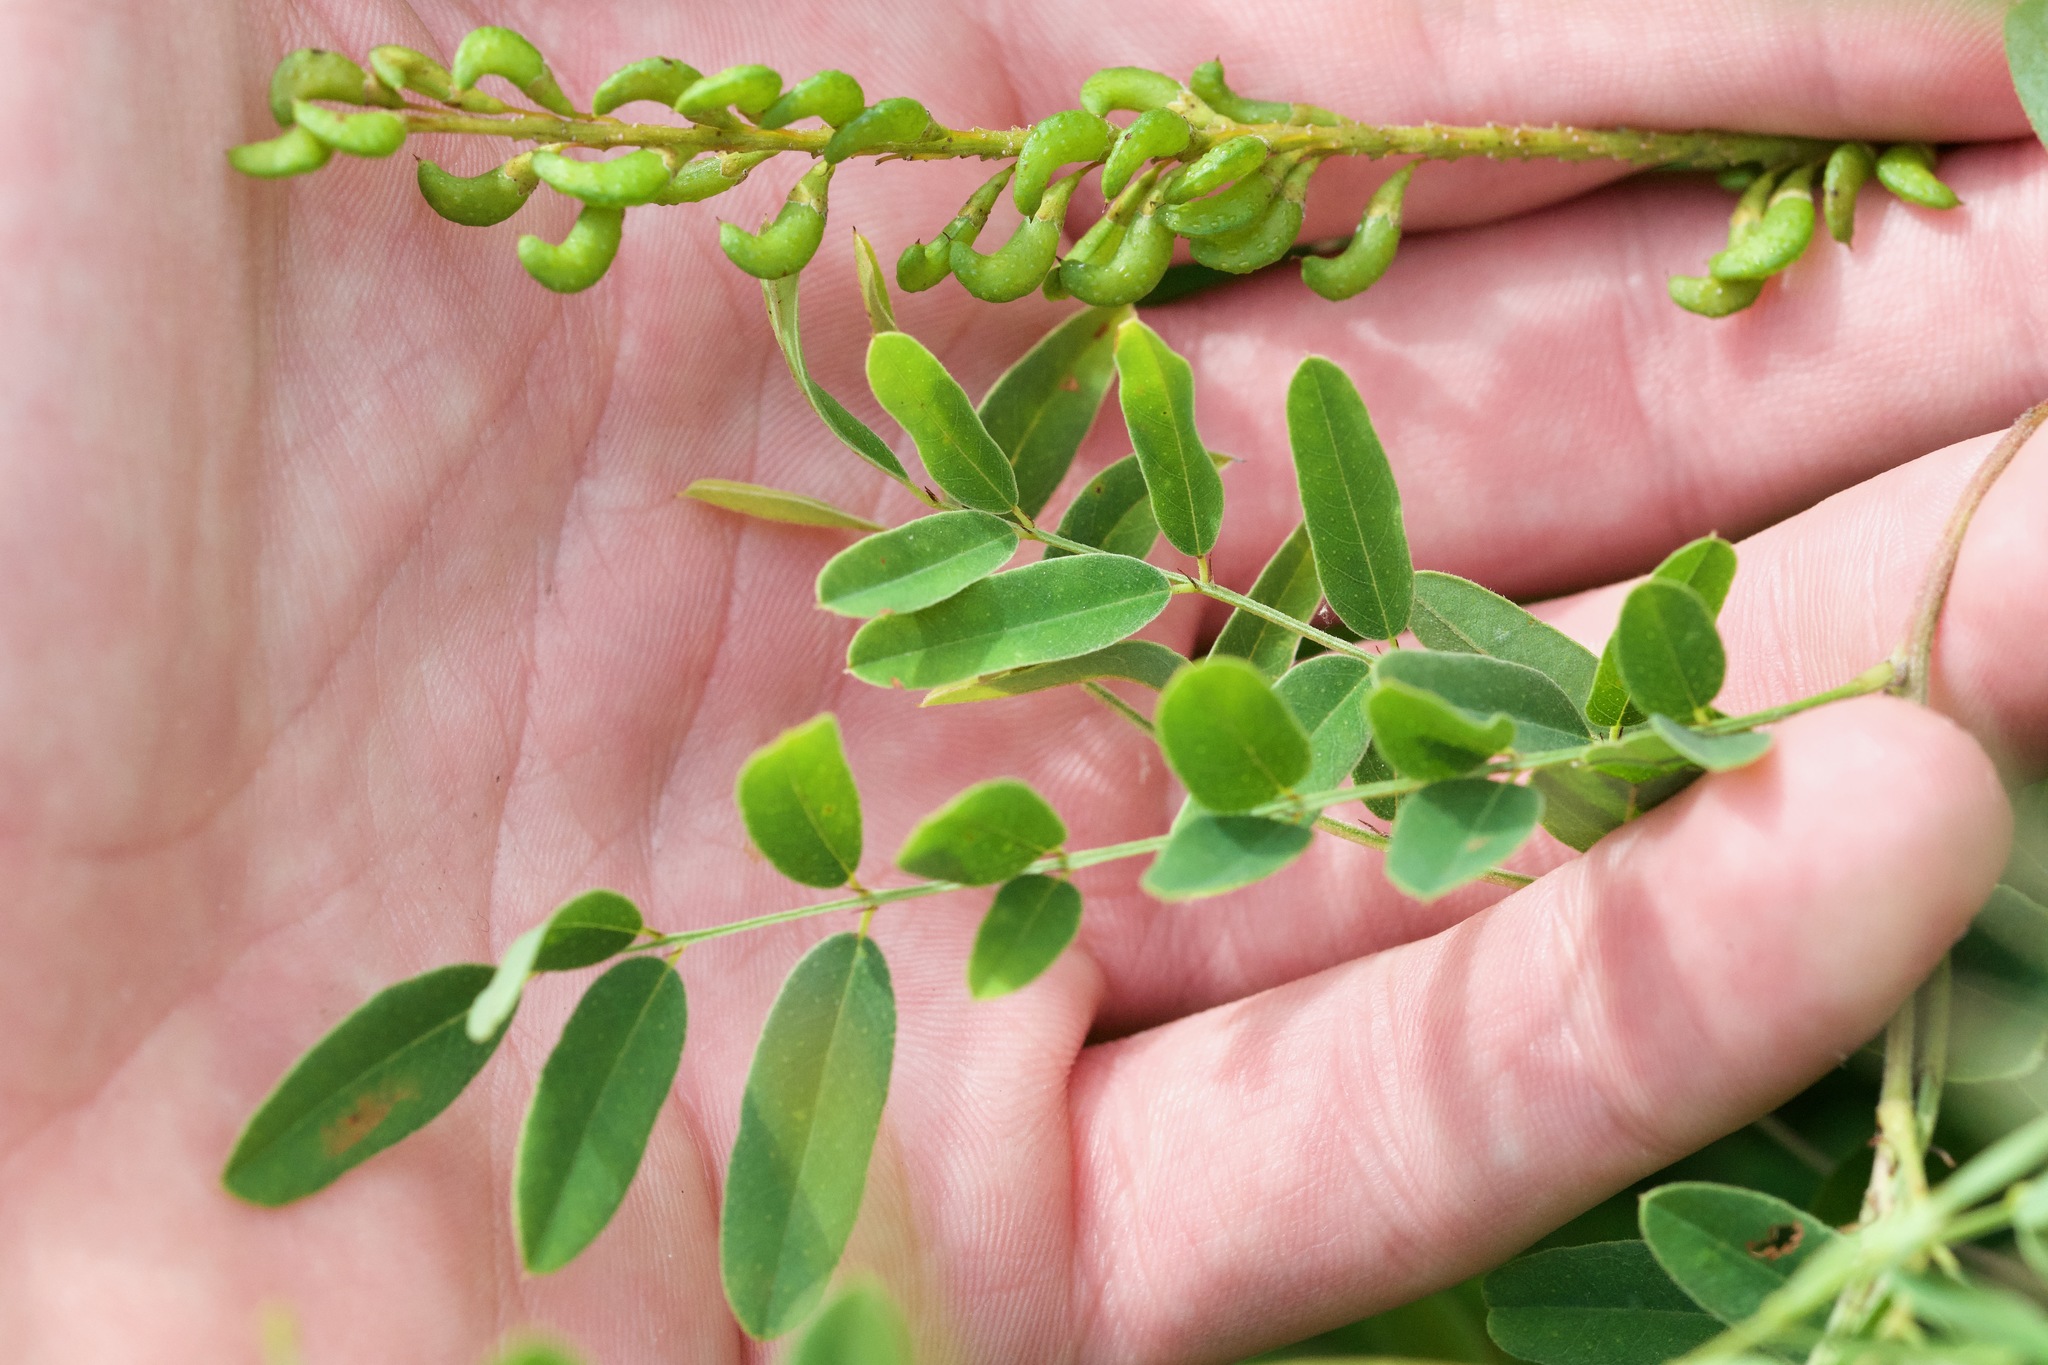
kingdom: Plantae
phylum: Tracheophyta
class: Magnoliopsida
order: Fabales
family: Fabaceae
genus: Amorpha
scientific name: Amorpha fruticosa
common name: False indigo
